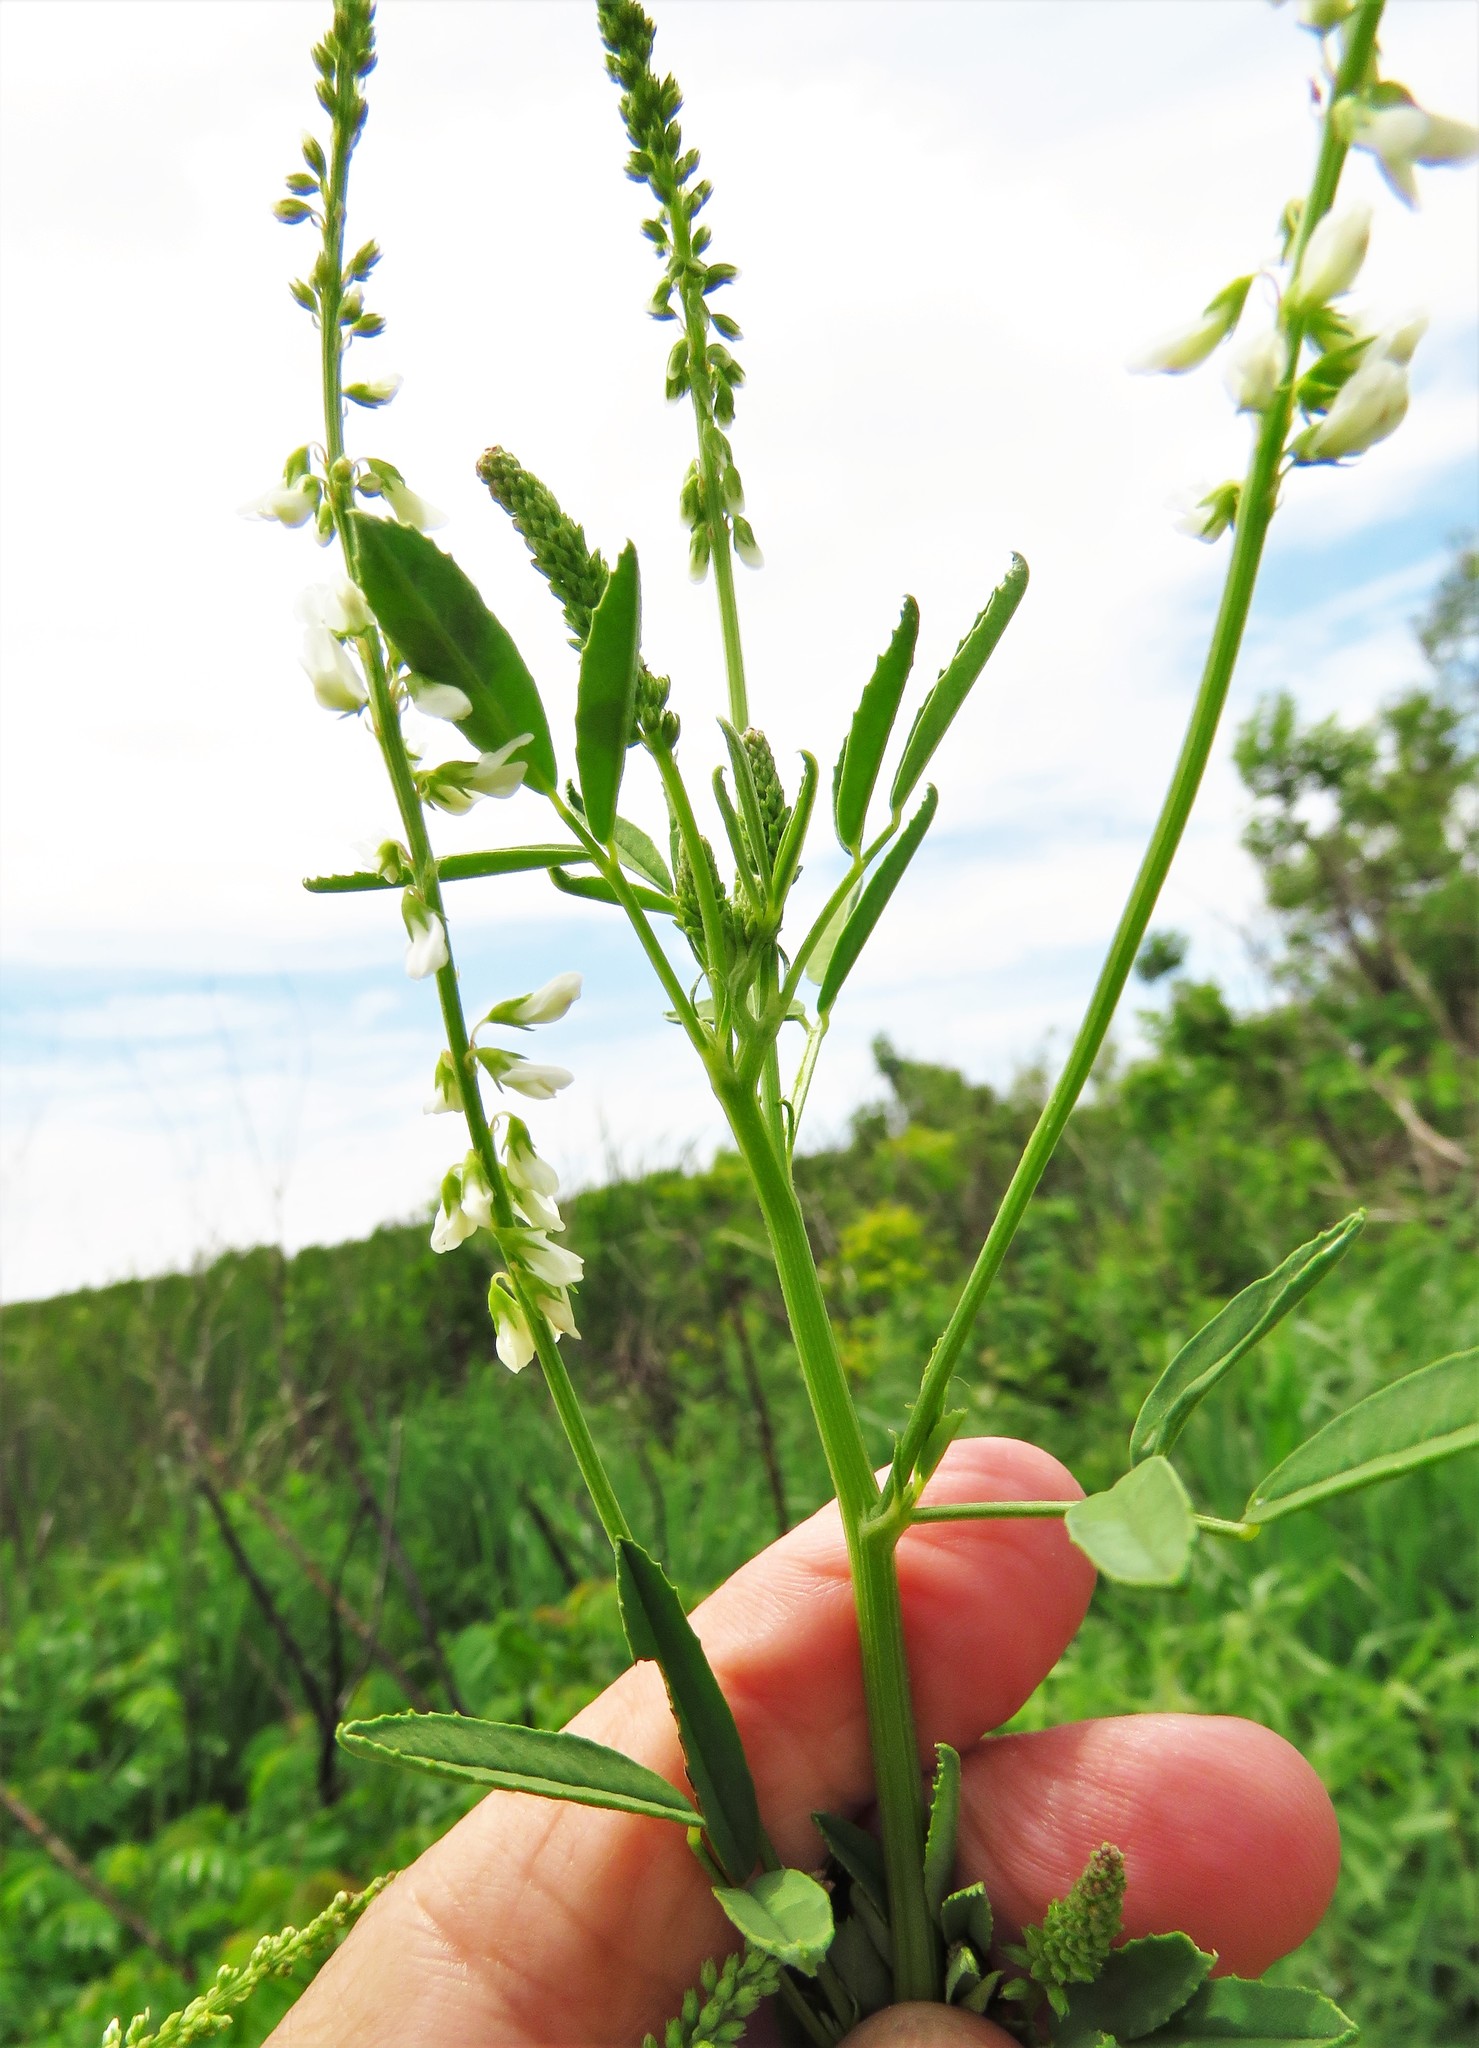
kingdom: Plantae
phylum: Tracheophyta
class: Magnoliopsida
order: Fabales
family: Fabaceae
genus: Melilotus
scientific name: Melilotus albus
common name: White melilot
